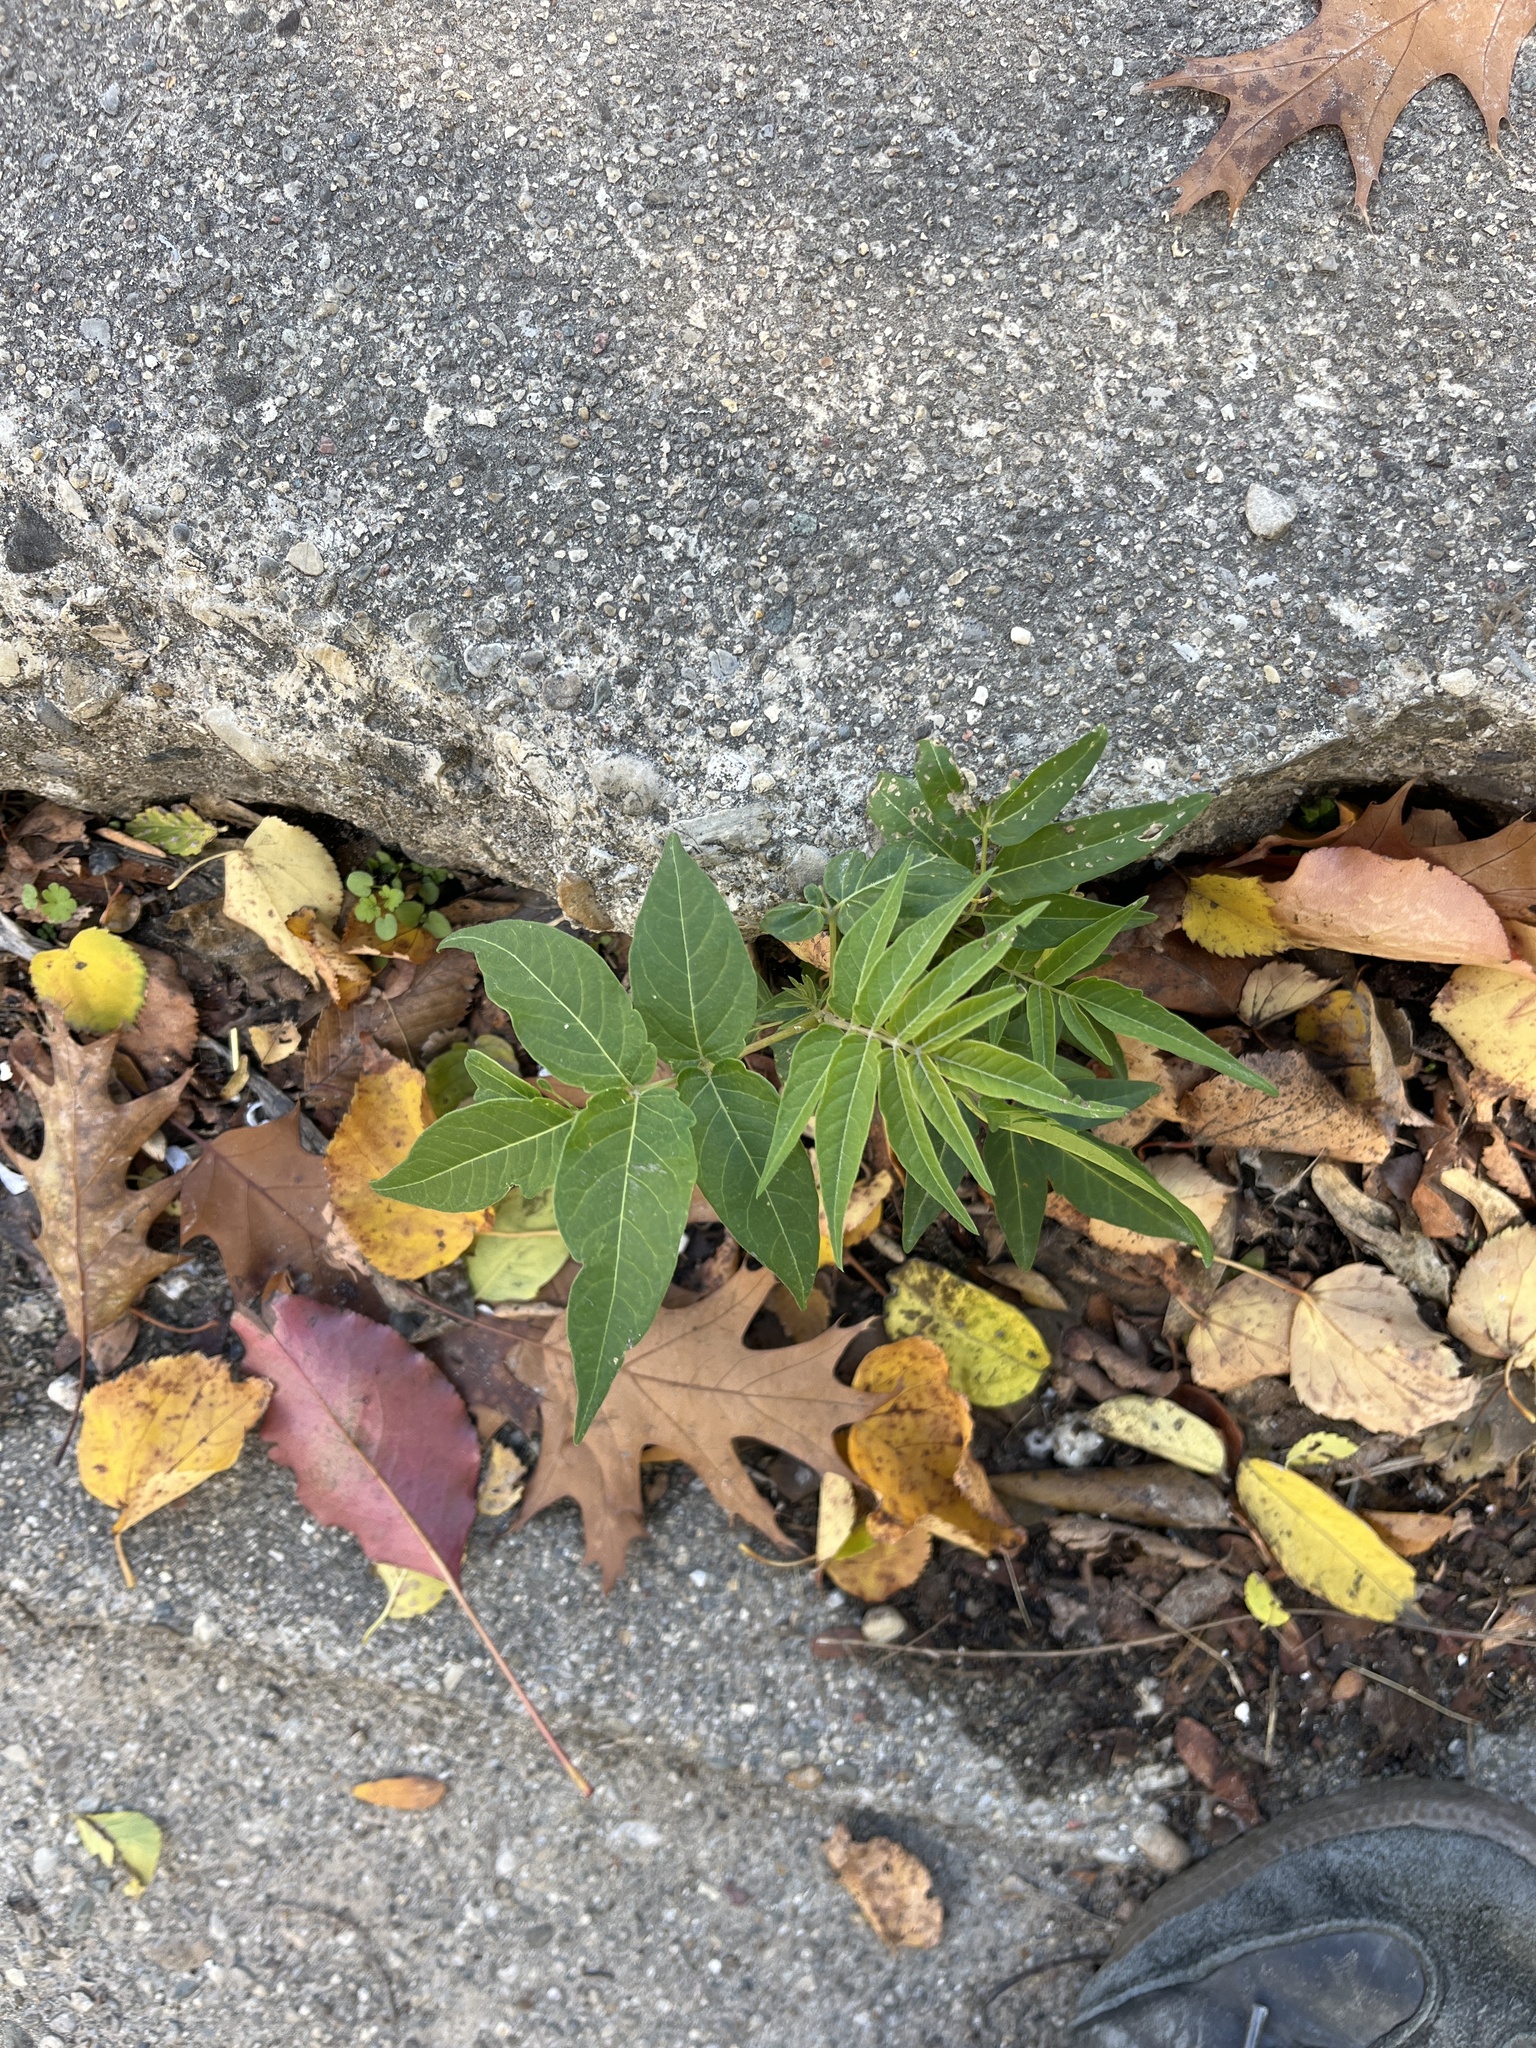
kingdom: Plantae
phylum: Tracheophyta
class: Magnoliopsida
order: Sapindales
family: Simaroubaceae
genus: Ailanthus
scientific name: Ailanthus altissima
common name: Tree-of-heaven
